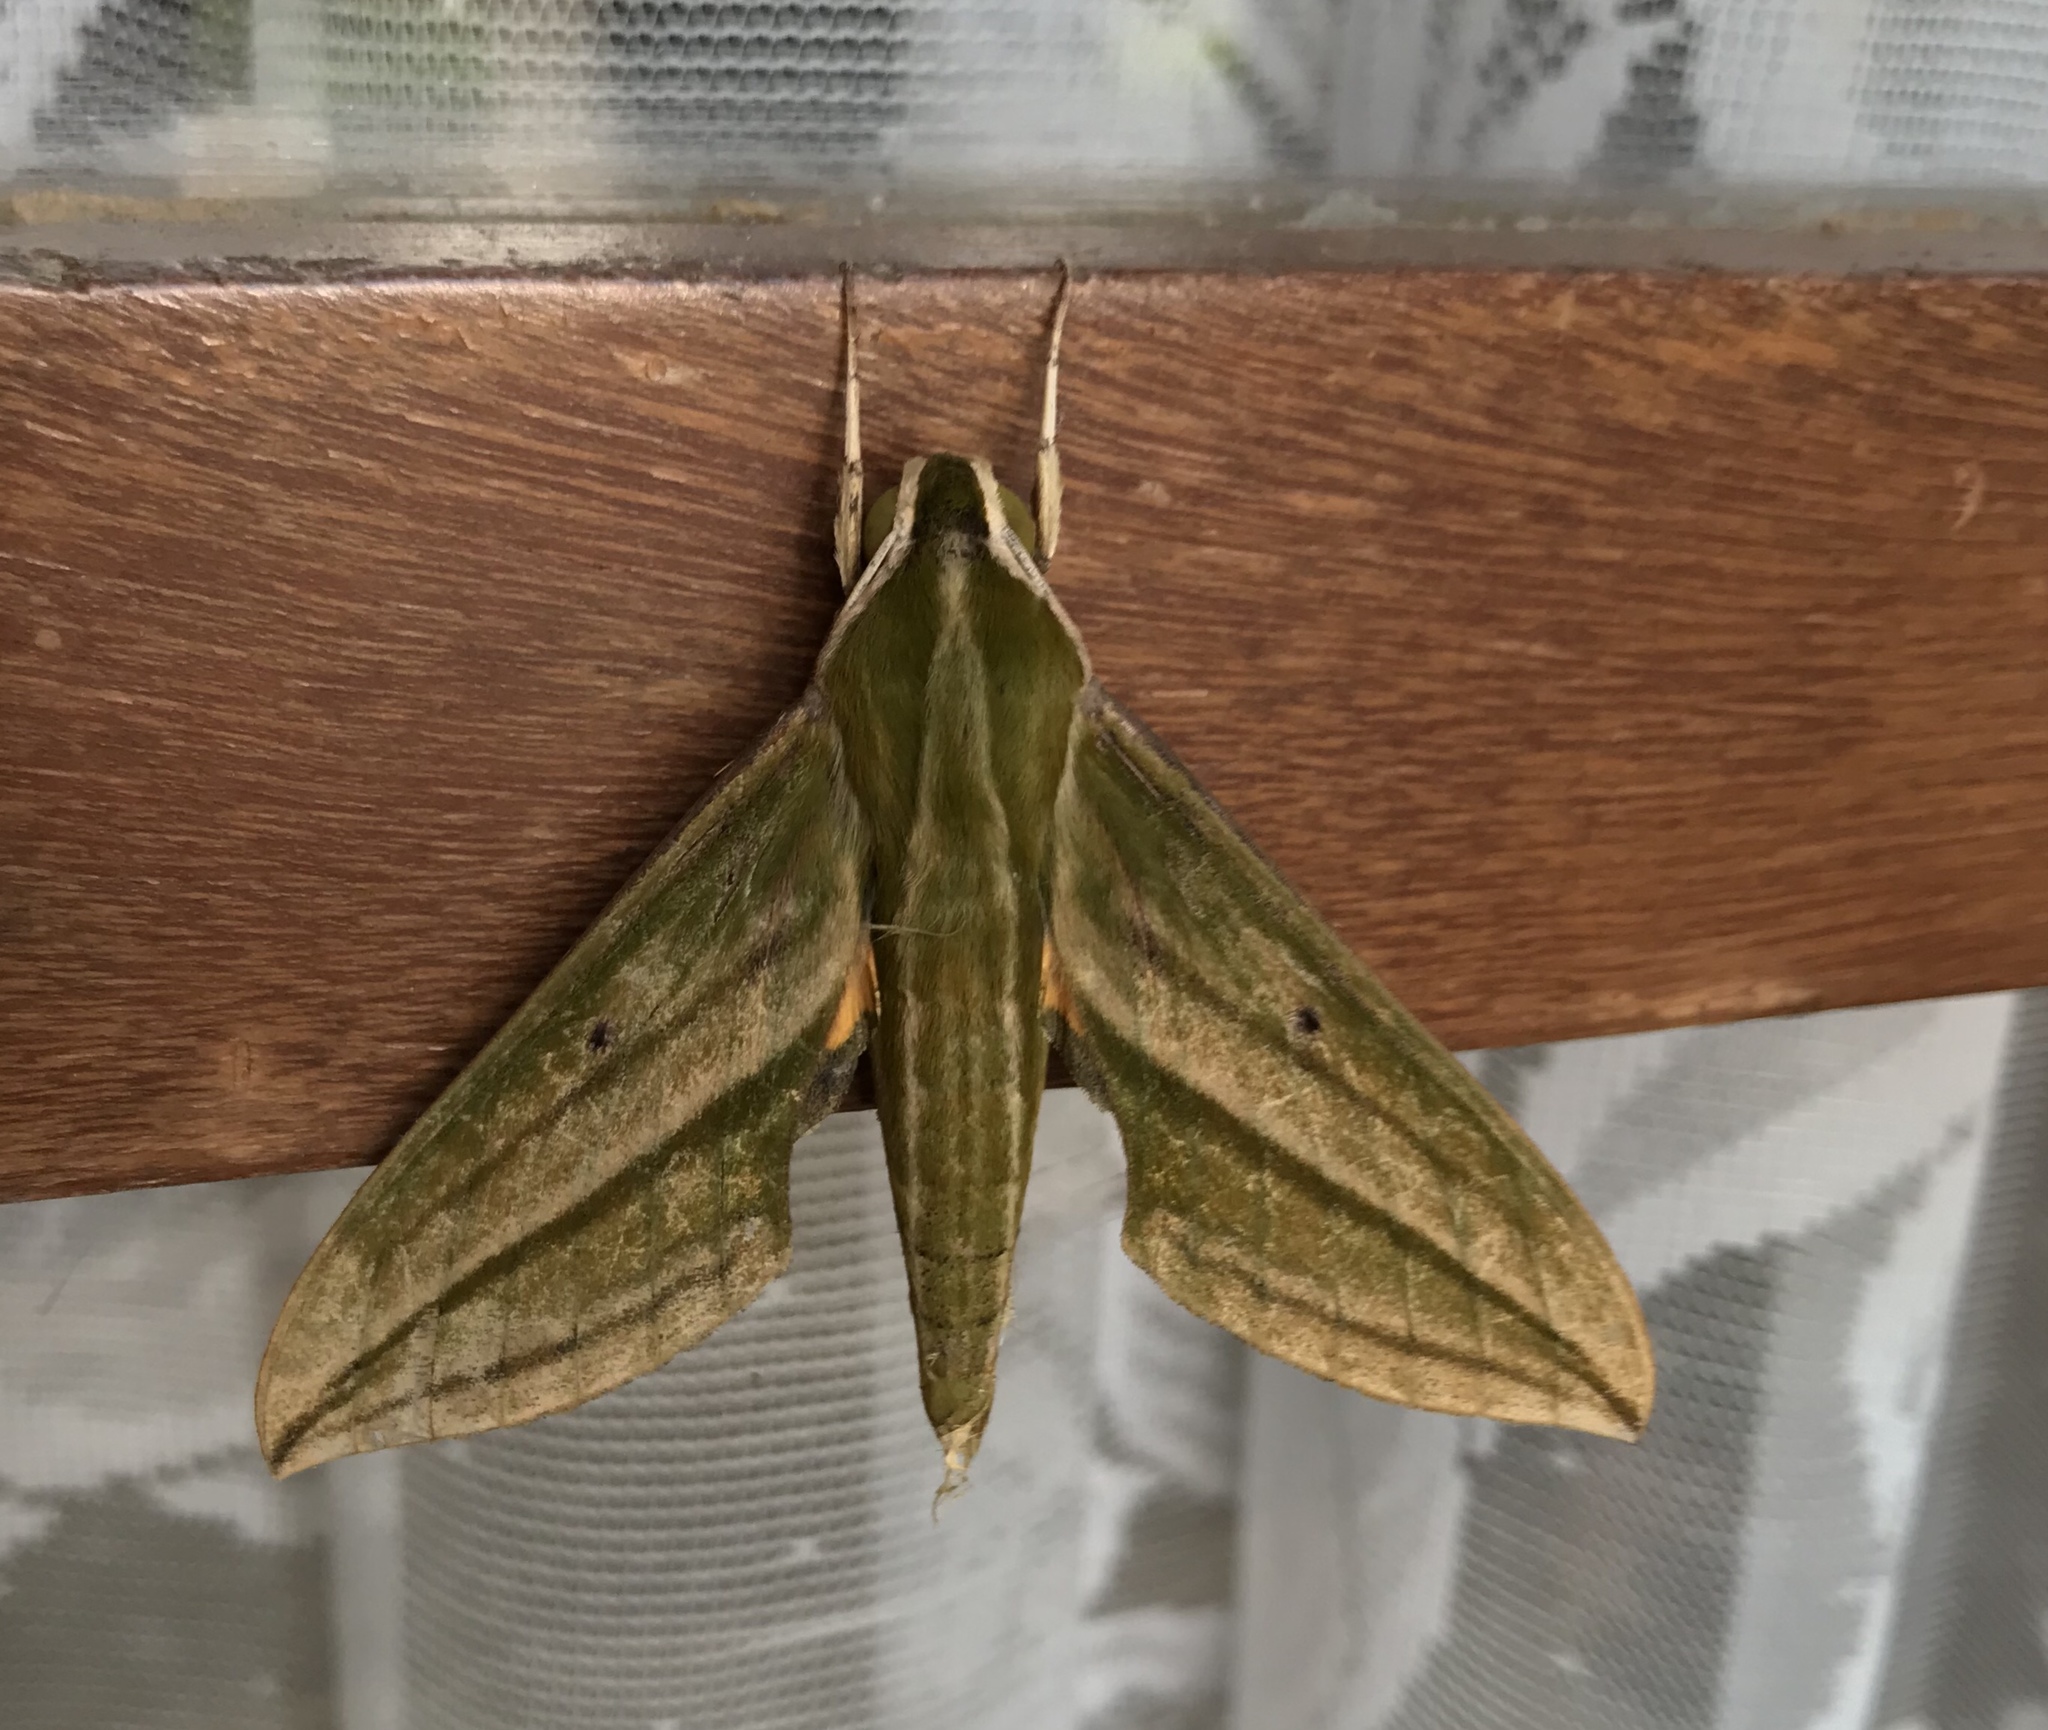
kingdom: Animalia
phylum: Arthropoda
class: Insecta
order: Lepidoptera
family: Sphingidae
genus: Cechenena
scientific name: Cechenena pollux
